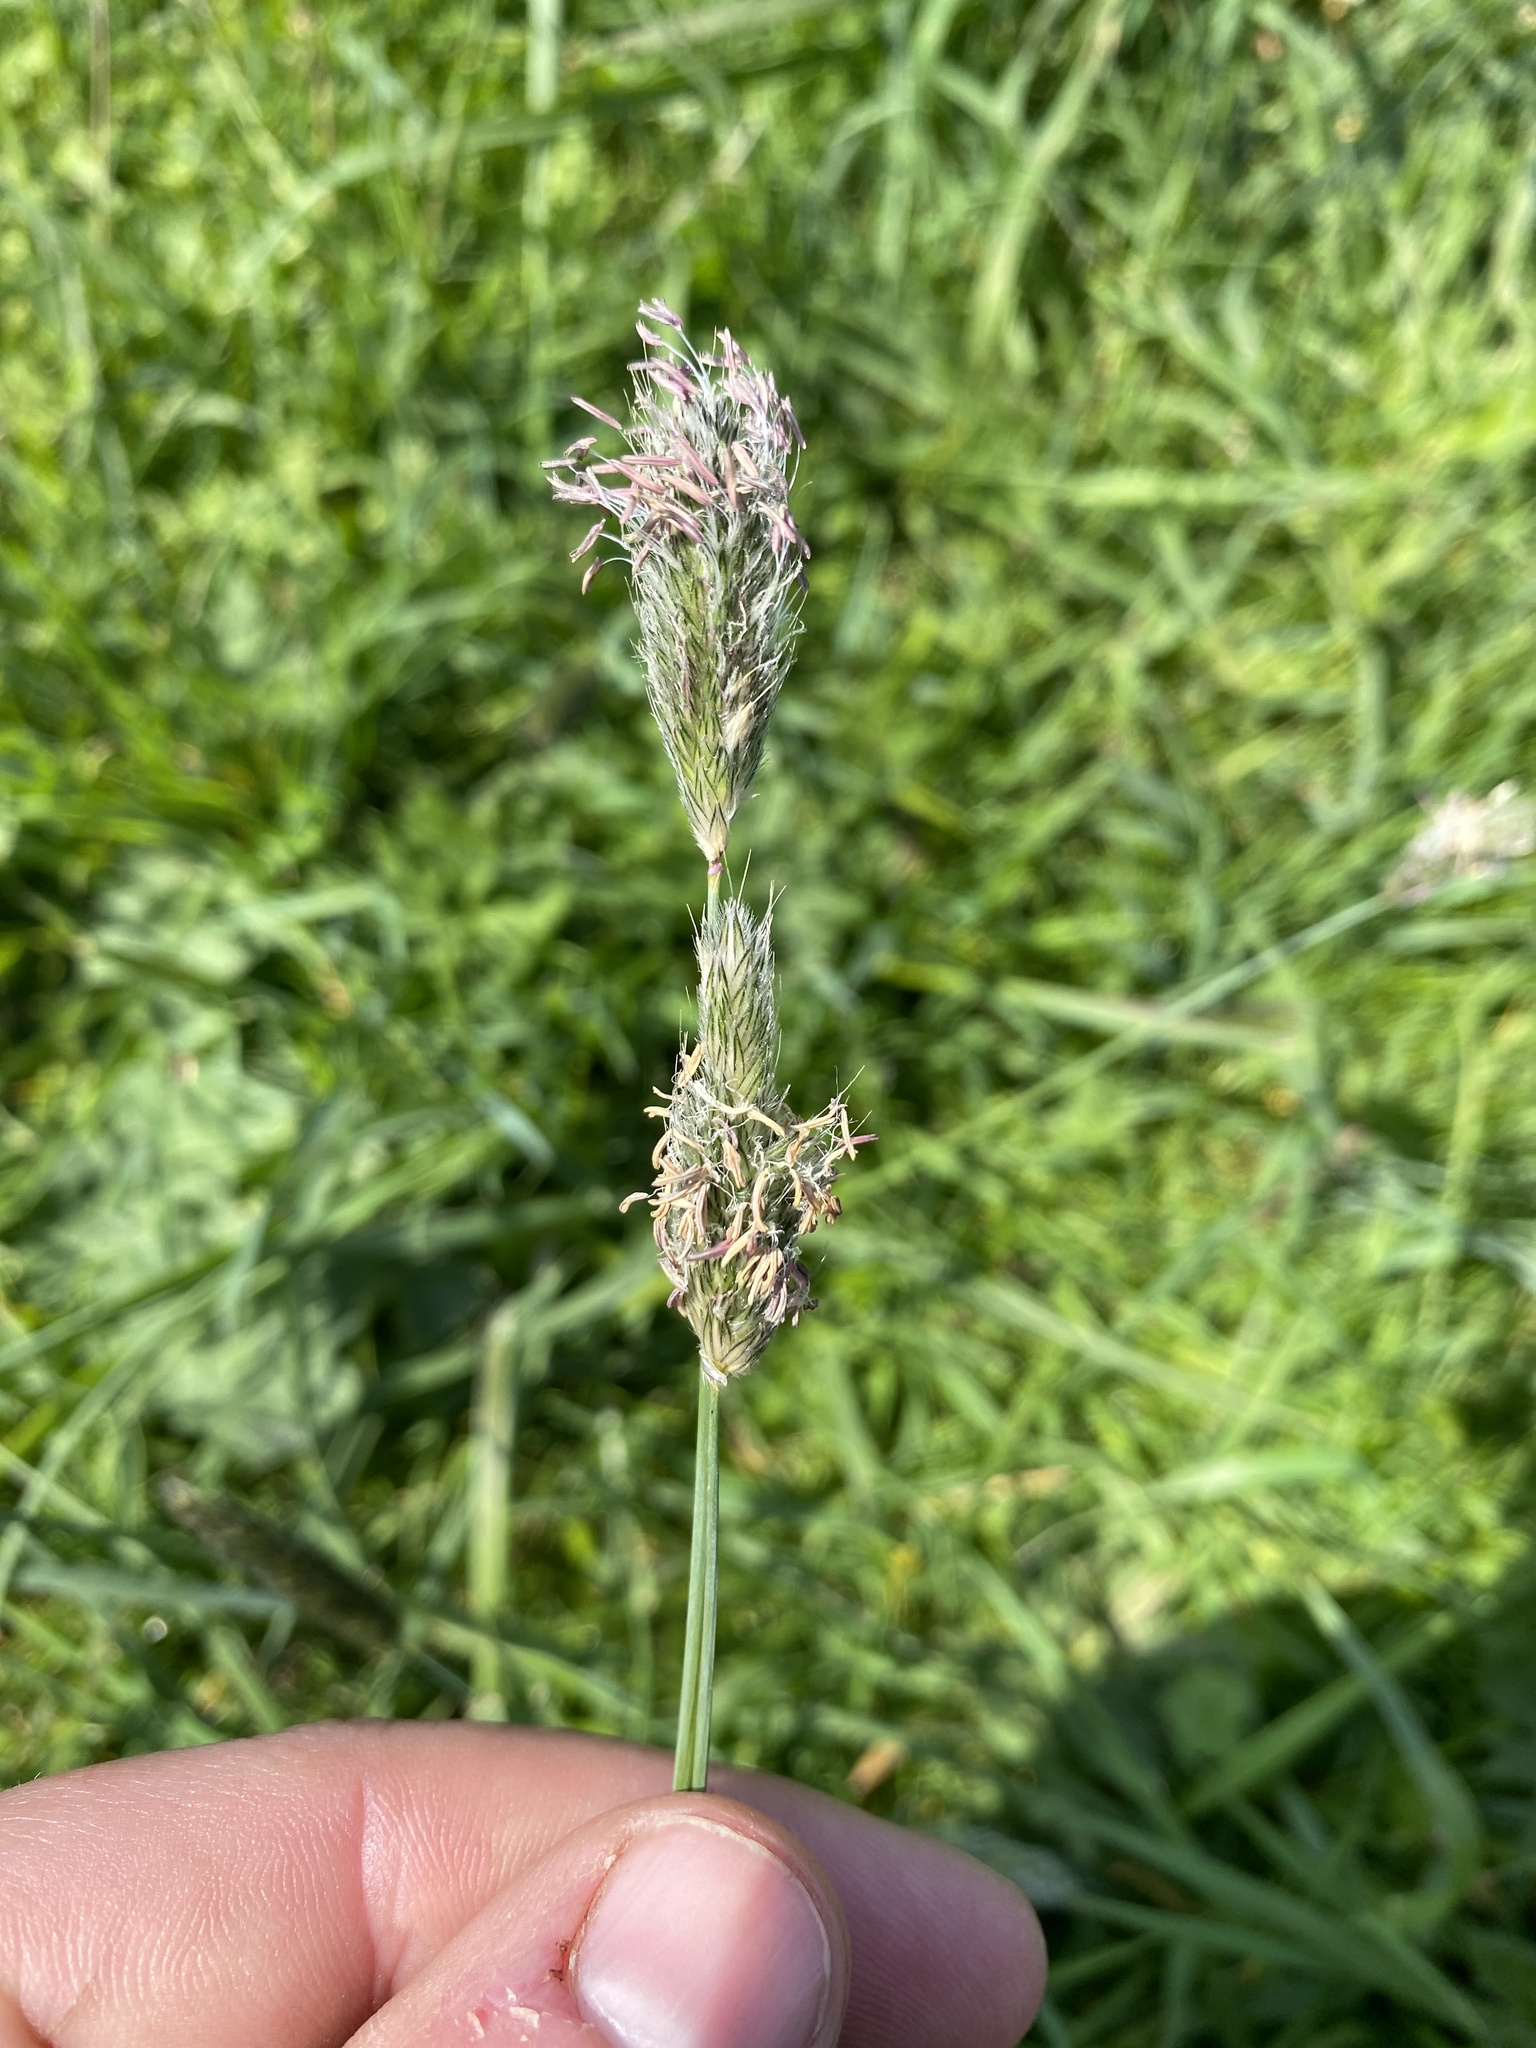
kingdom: Plantae
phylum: Tracheophyta
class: Liliopsida
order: Poales
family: Poaceae
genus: Alopecurus
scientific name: Alopecurus pratensis
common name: Meadow foxtail
